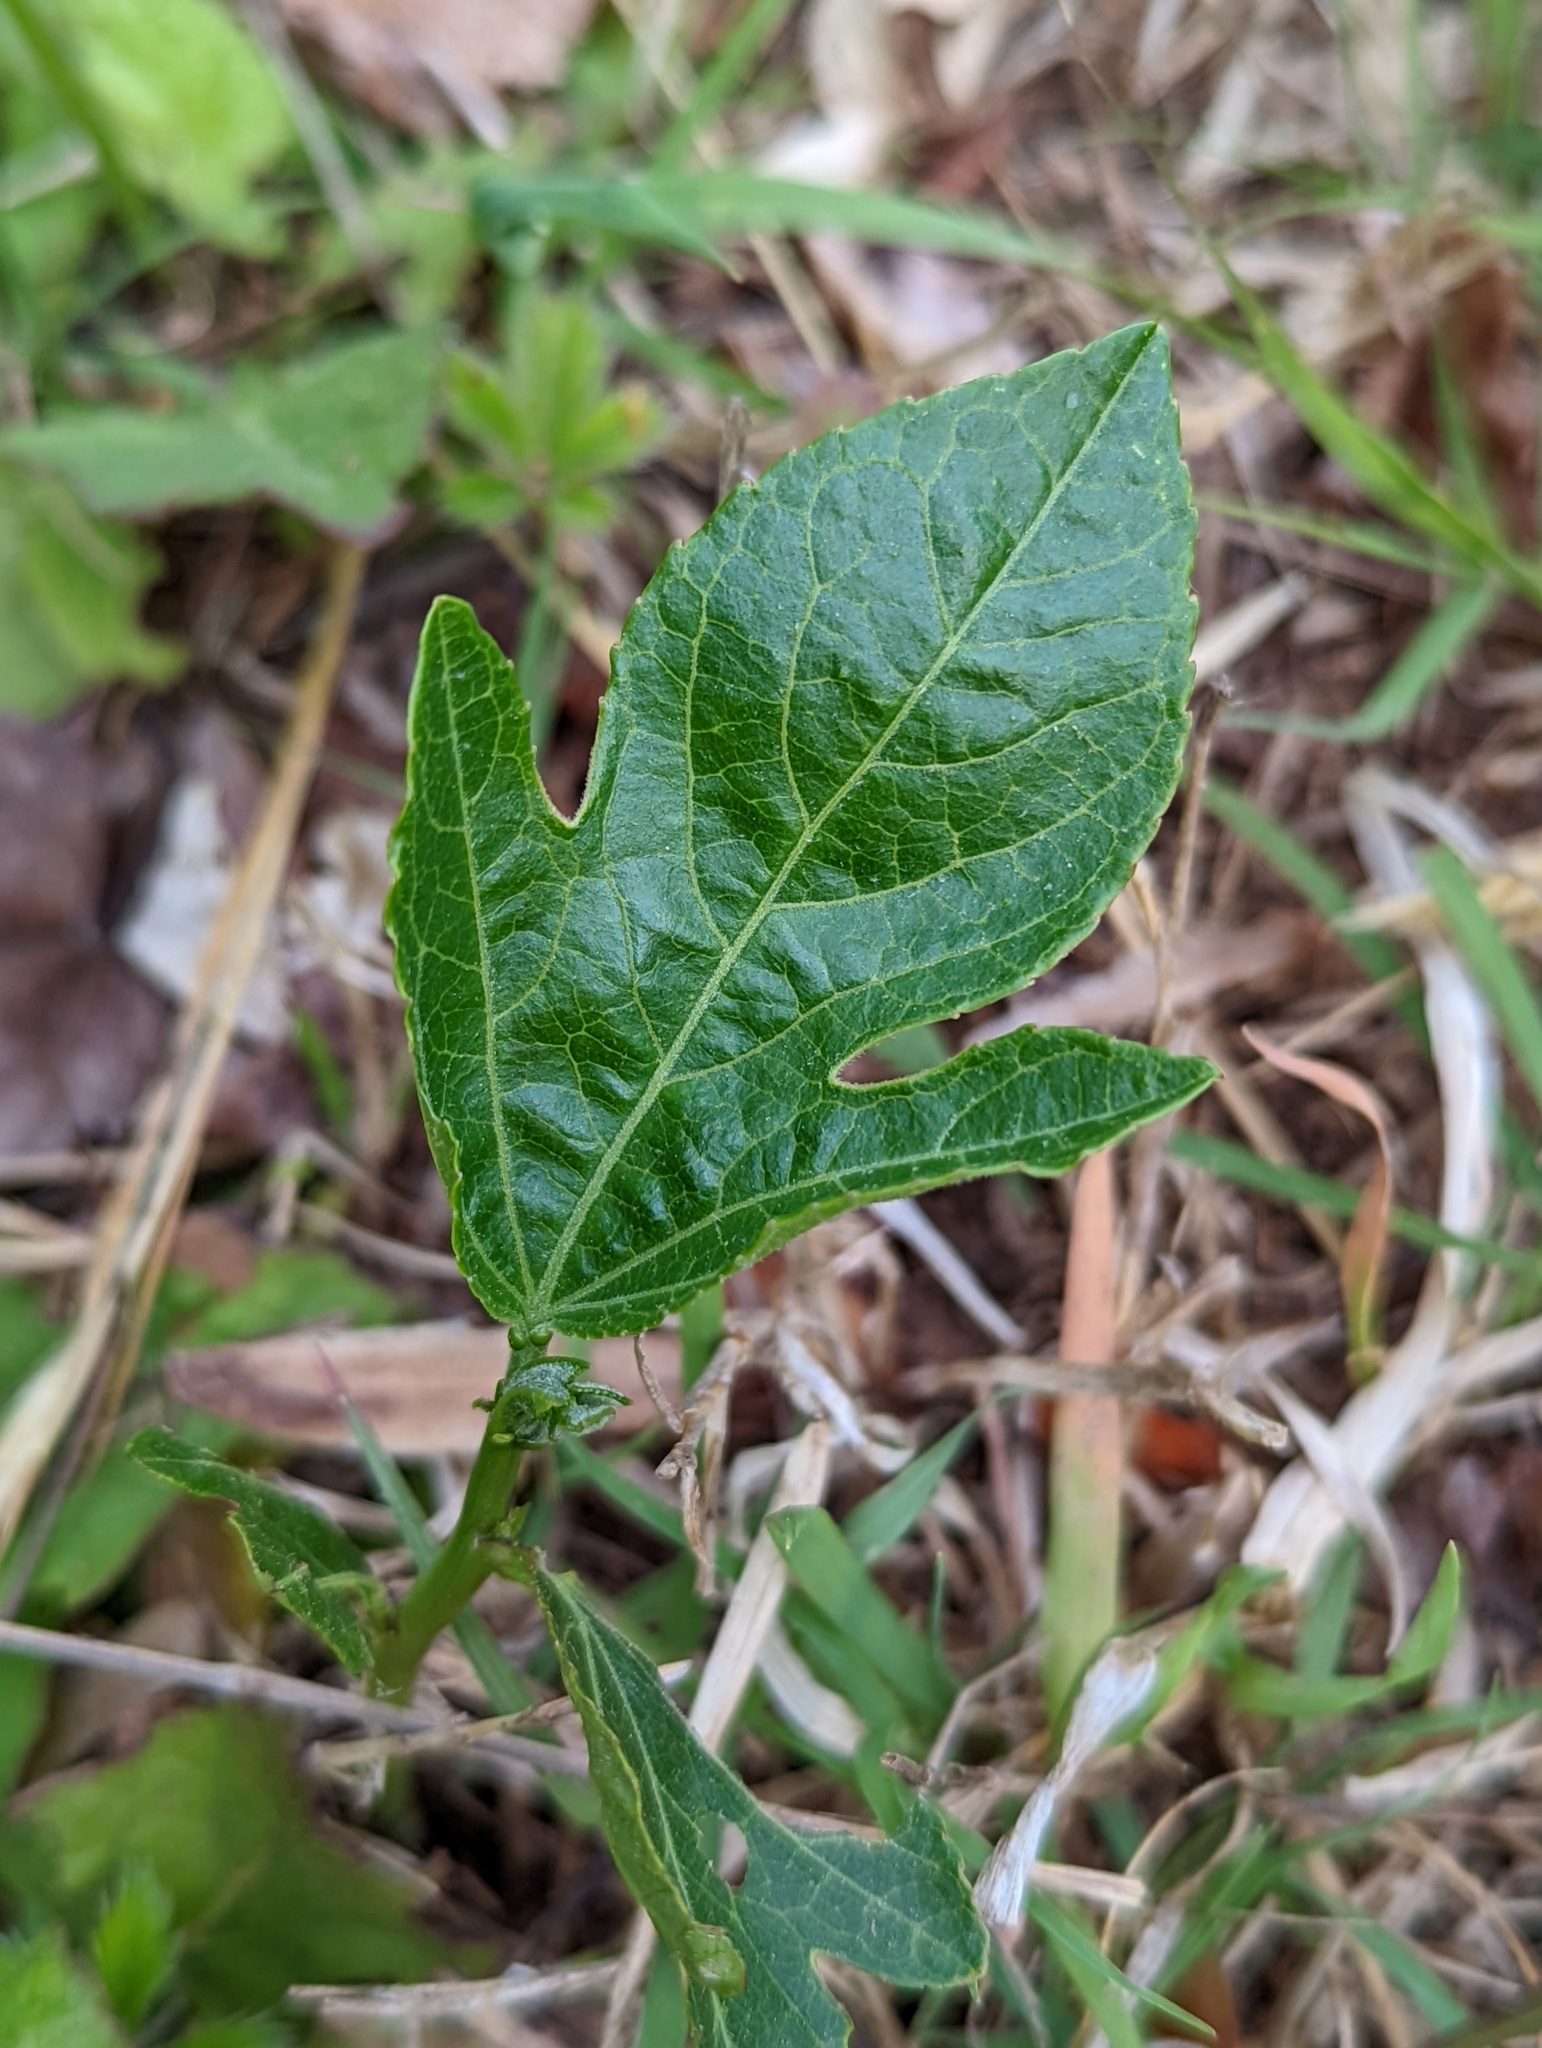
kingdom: Plantae
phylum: Tracheophyta
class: Magnoliopsida
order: Malpighiales
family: Passifloraceae
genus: Passiflora
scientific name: Passiflora incarnata
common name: Apricot-vine
